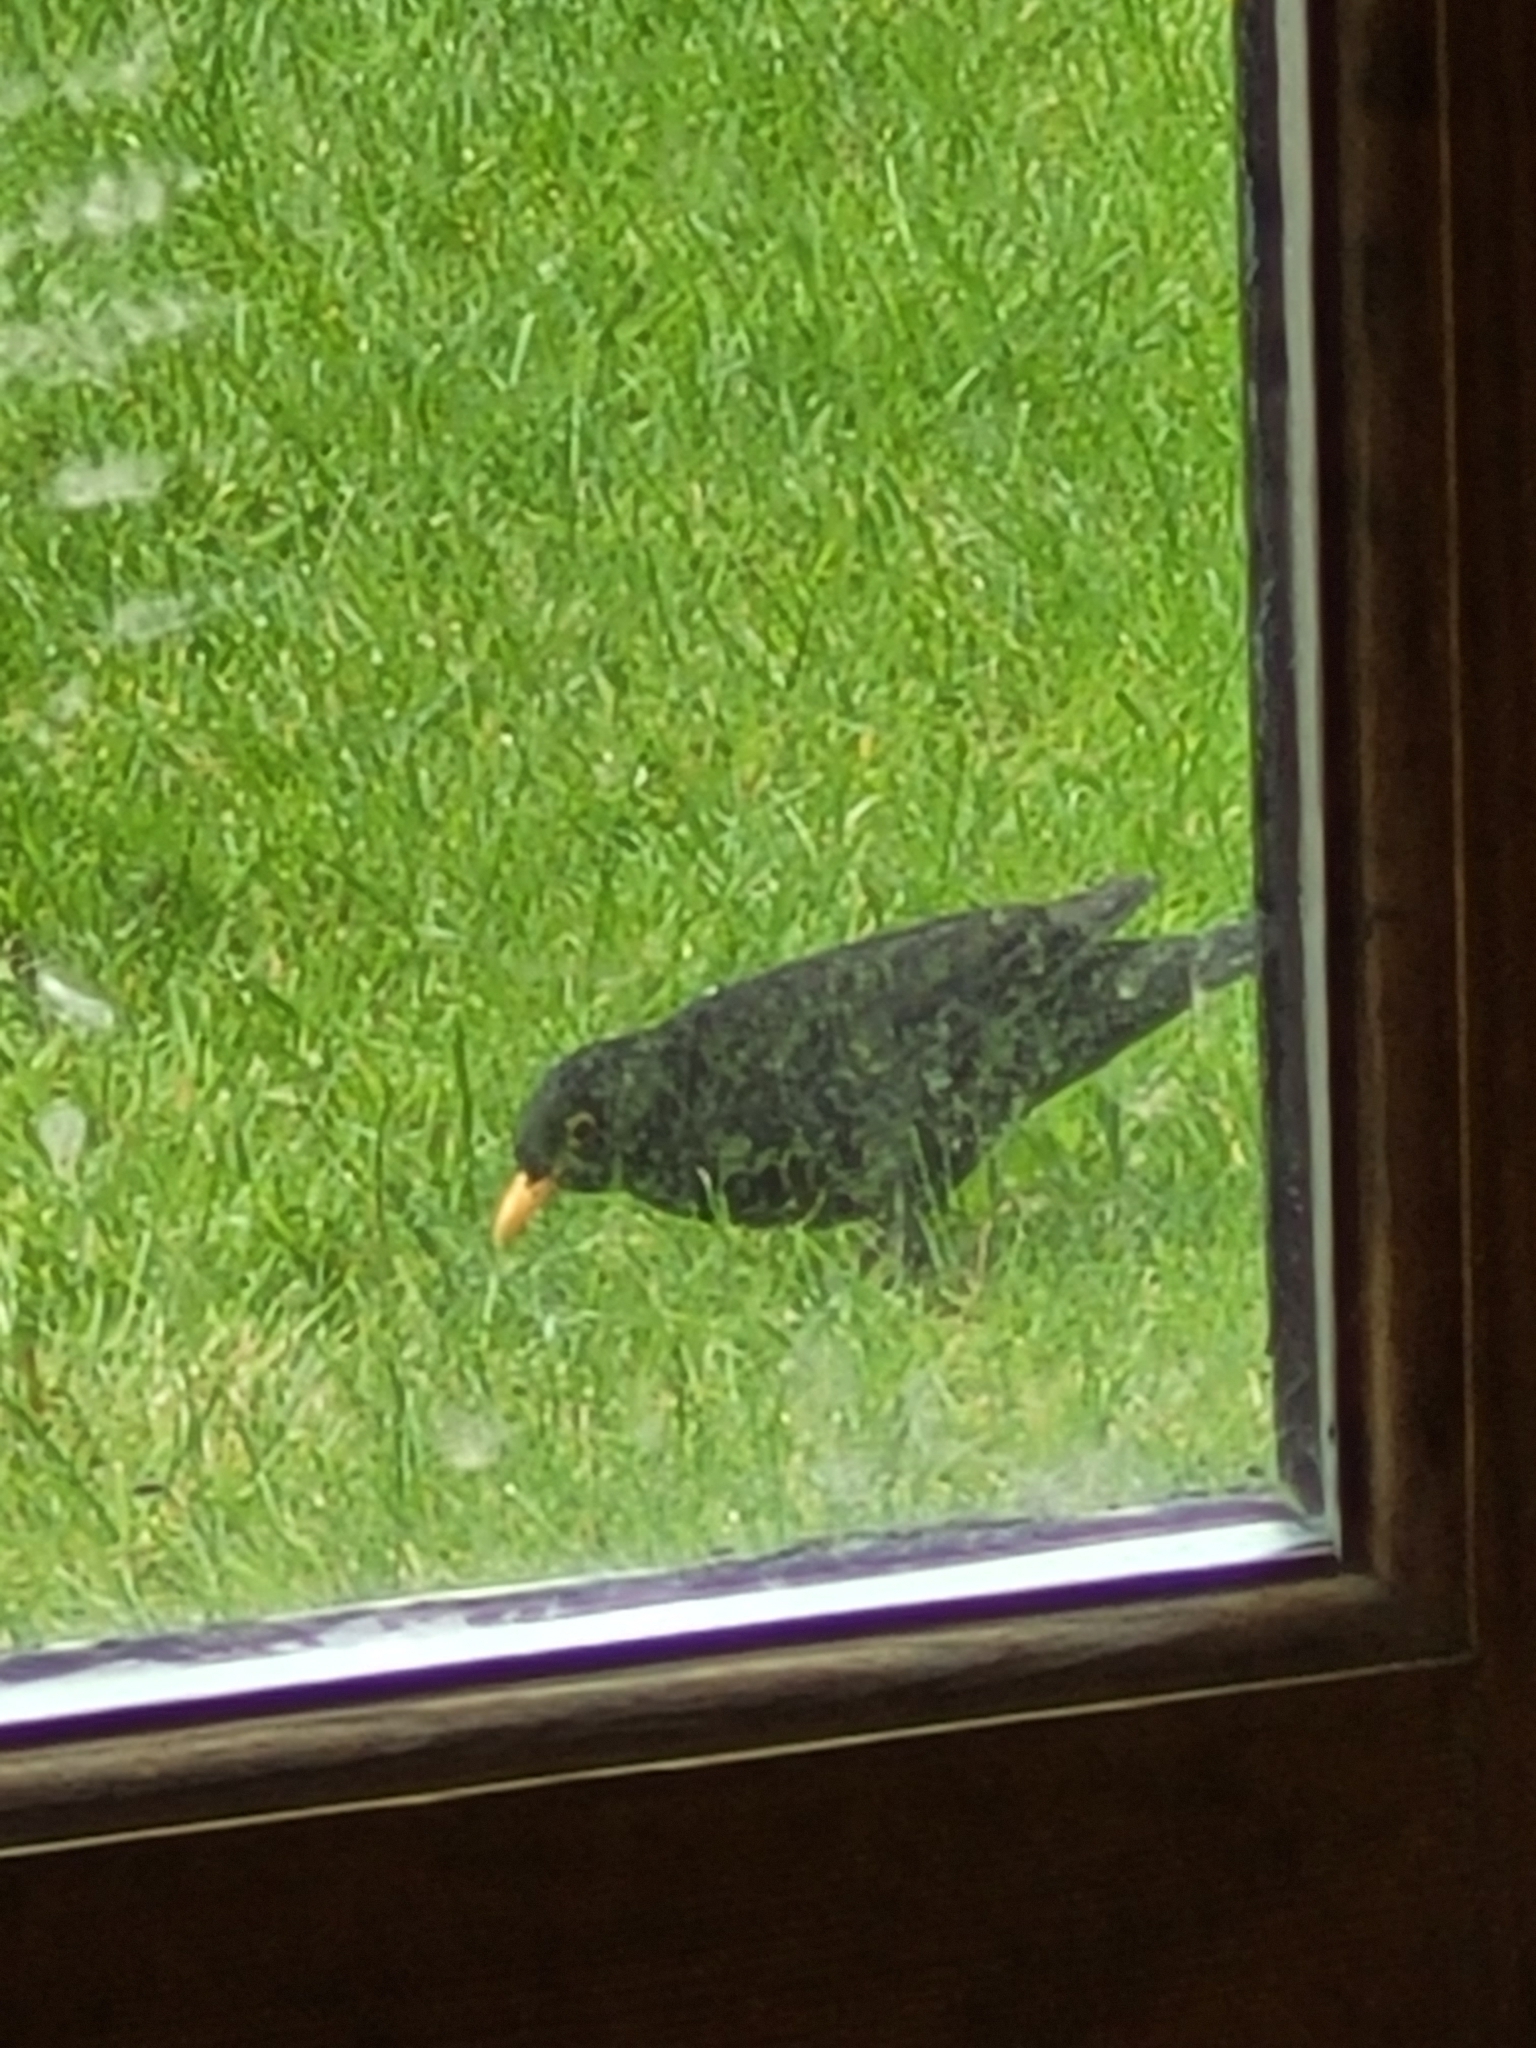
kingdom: Animalia
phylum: Chordata
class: Aves
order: Passeriformes
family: Turdidae
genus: Turdus
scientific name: Turdus merula
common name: Common blackbird
